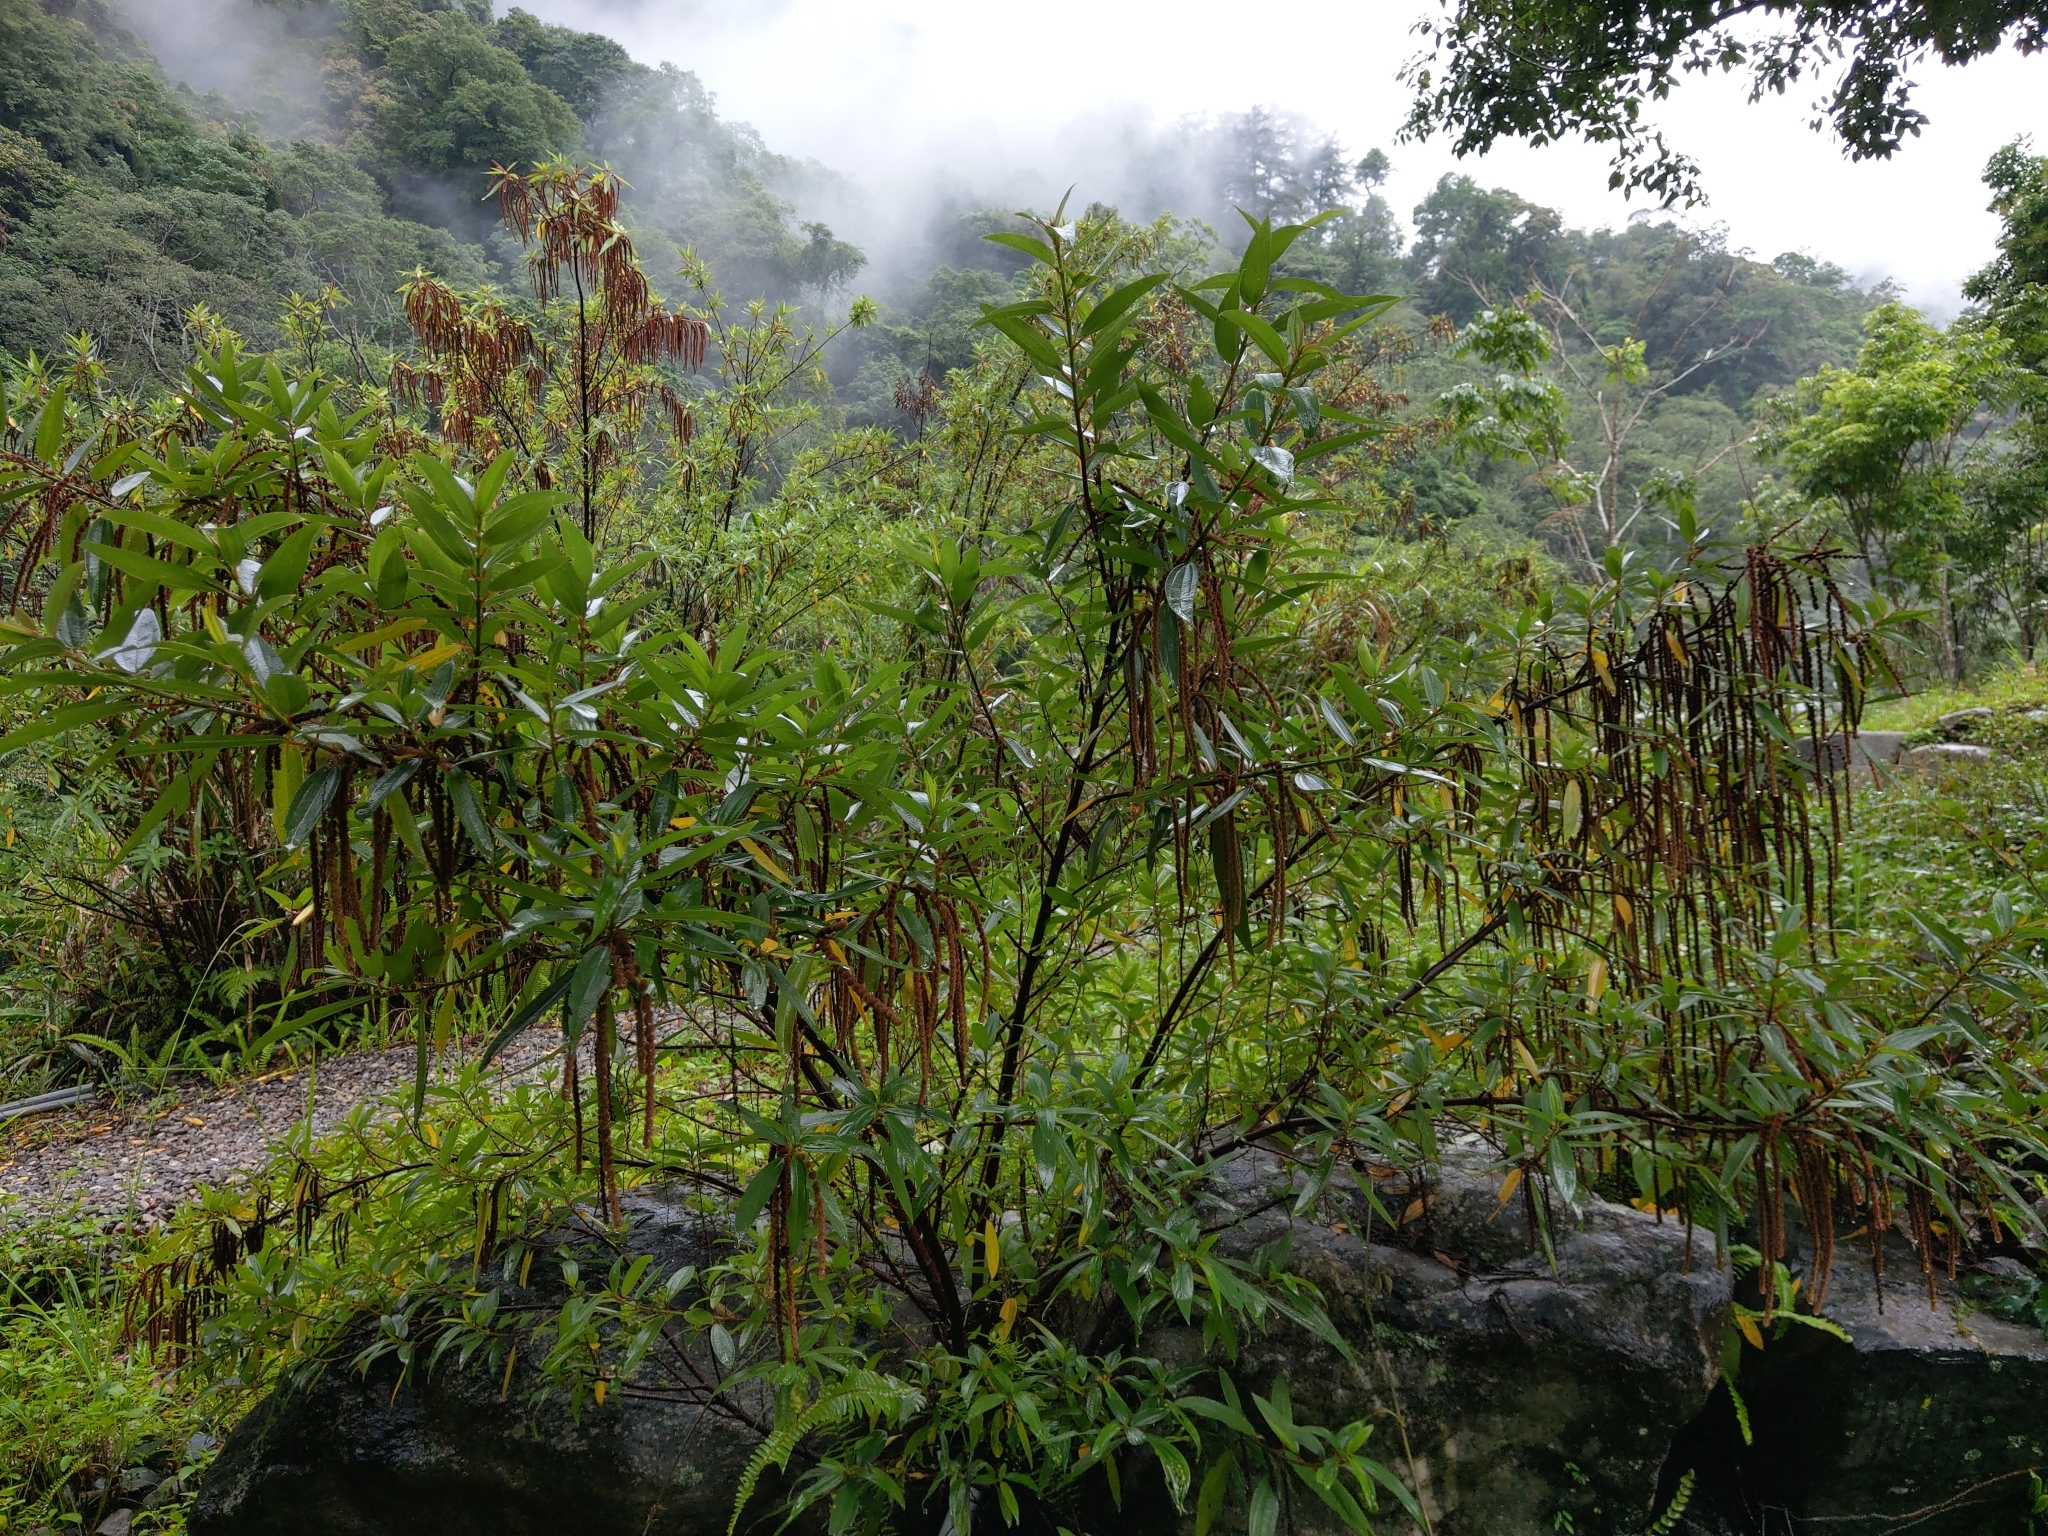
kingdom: Plantae
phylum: Tracheophyta
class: Magnoliopsida
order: Rosales
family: Urticaceae
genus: Boehmeria
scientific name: Boehmeria densiflora
